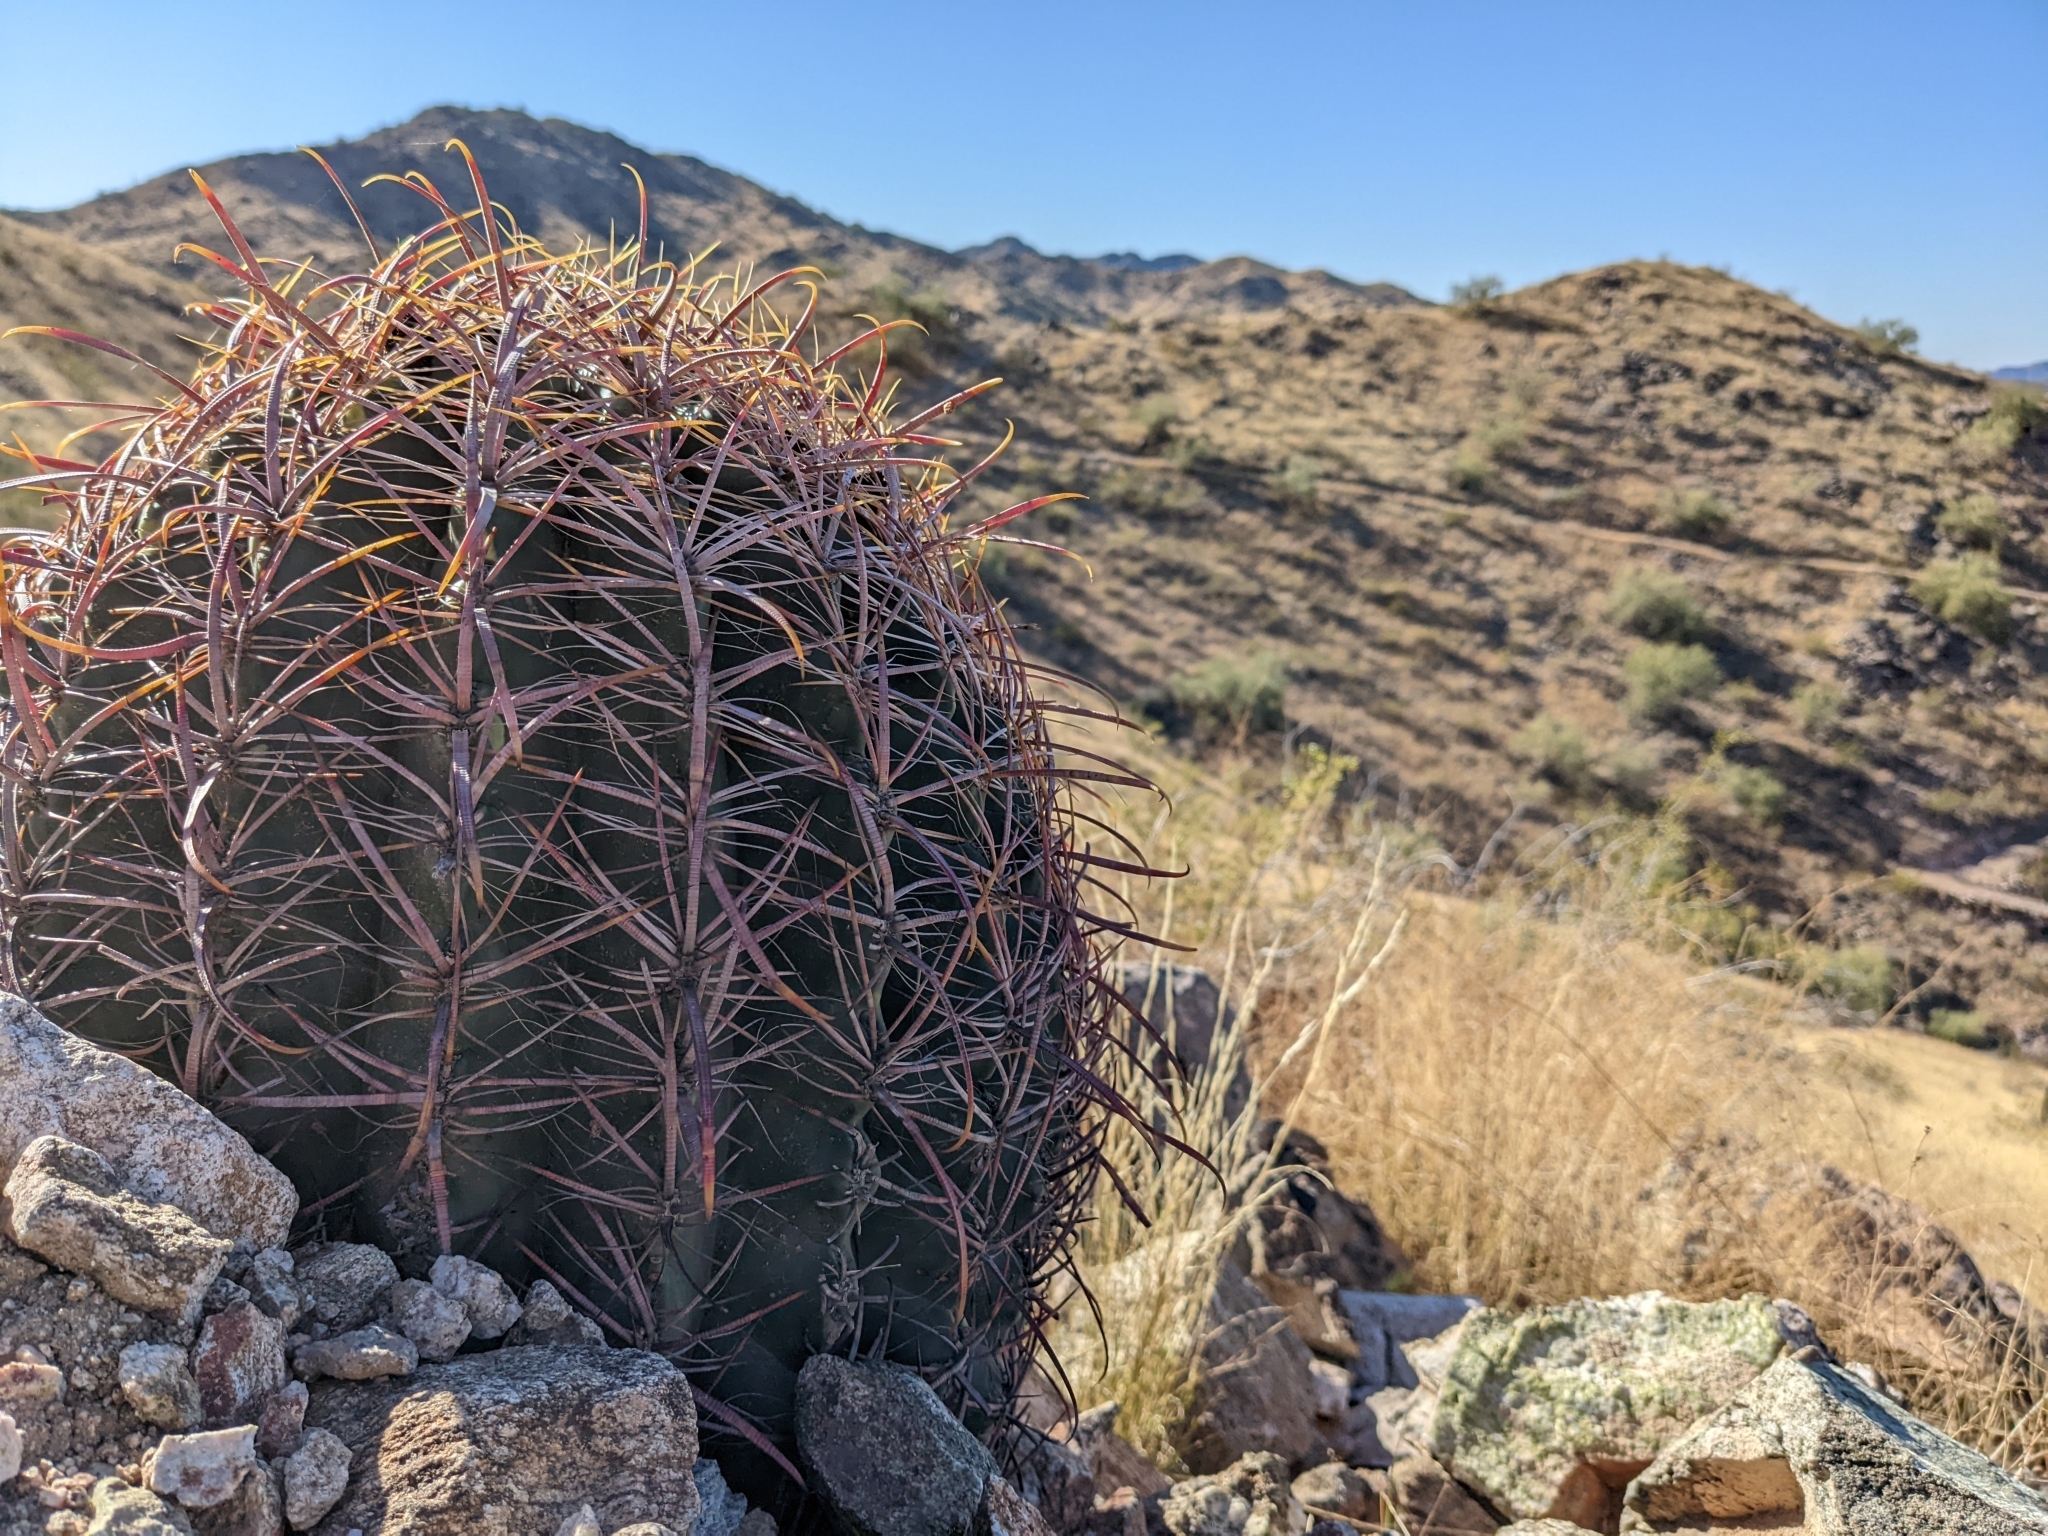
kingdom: Plantae
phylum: Tracheophyta
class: Magnoliopsida
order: Caryophyllales
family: Cactaceae
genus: Ferocactus
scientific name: Ferocactus cylindraceus
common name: California barrel cactus
